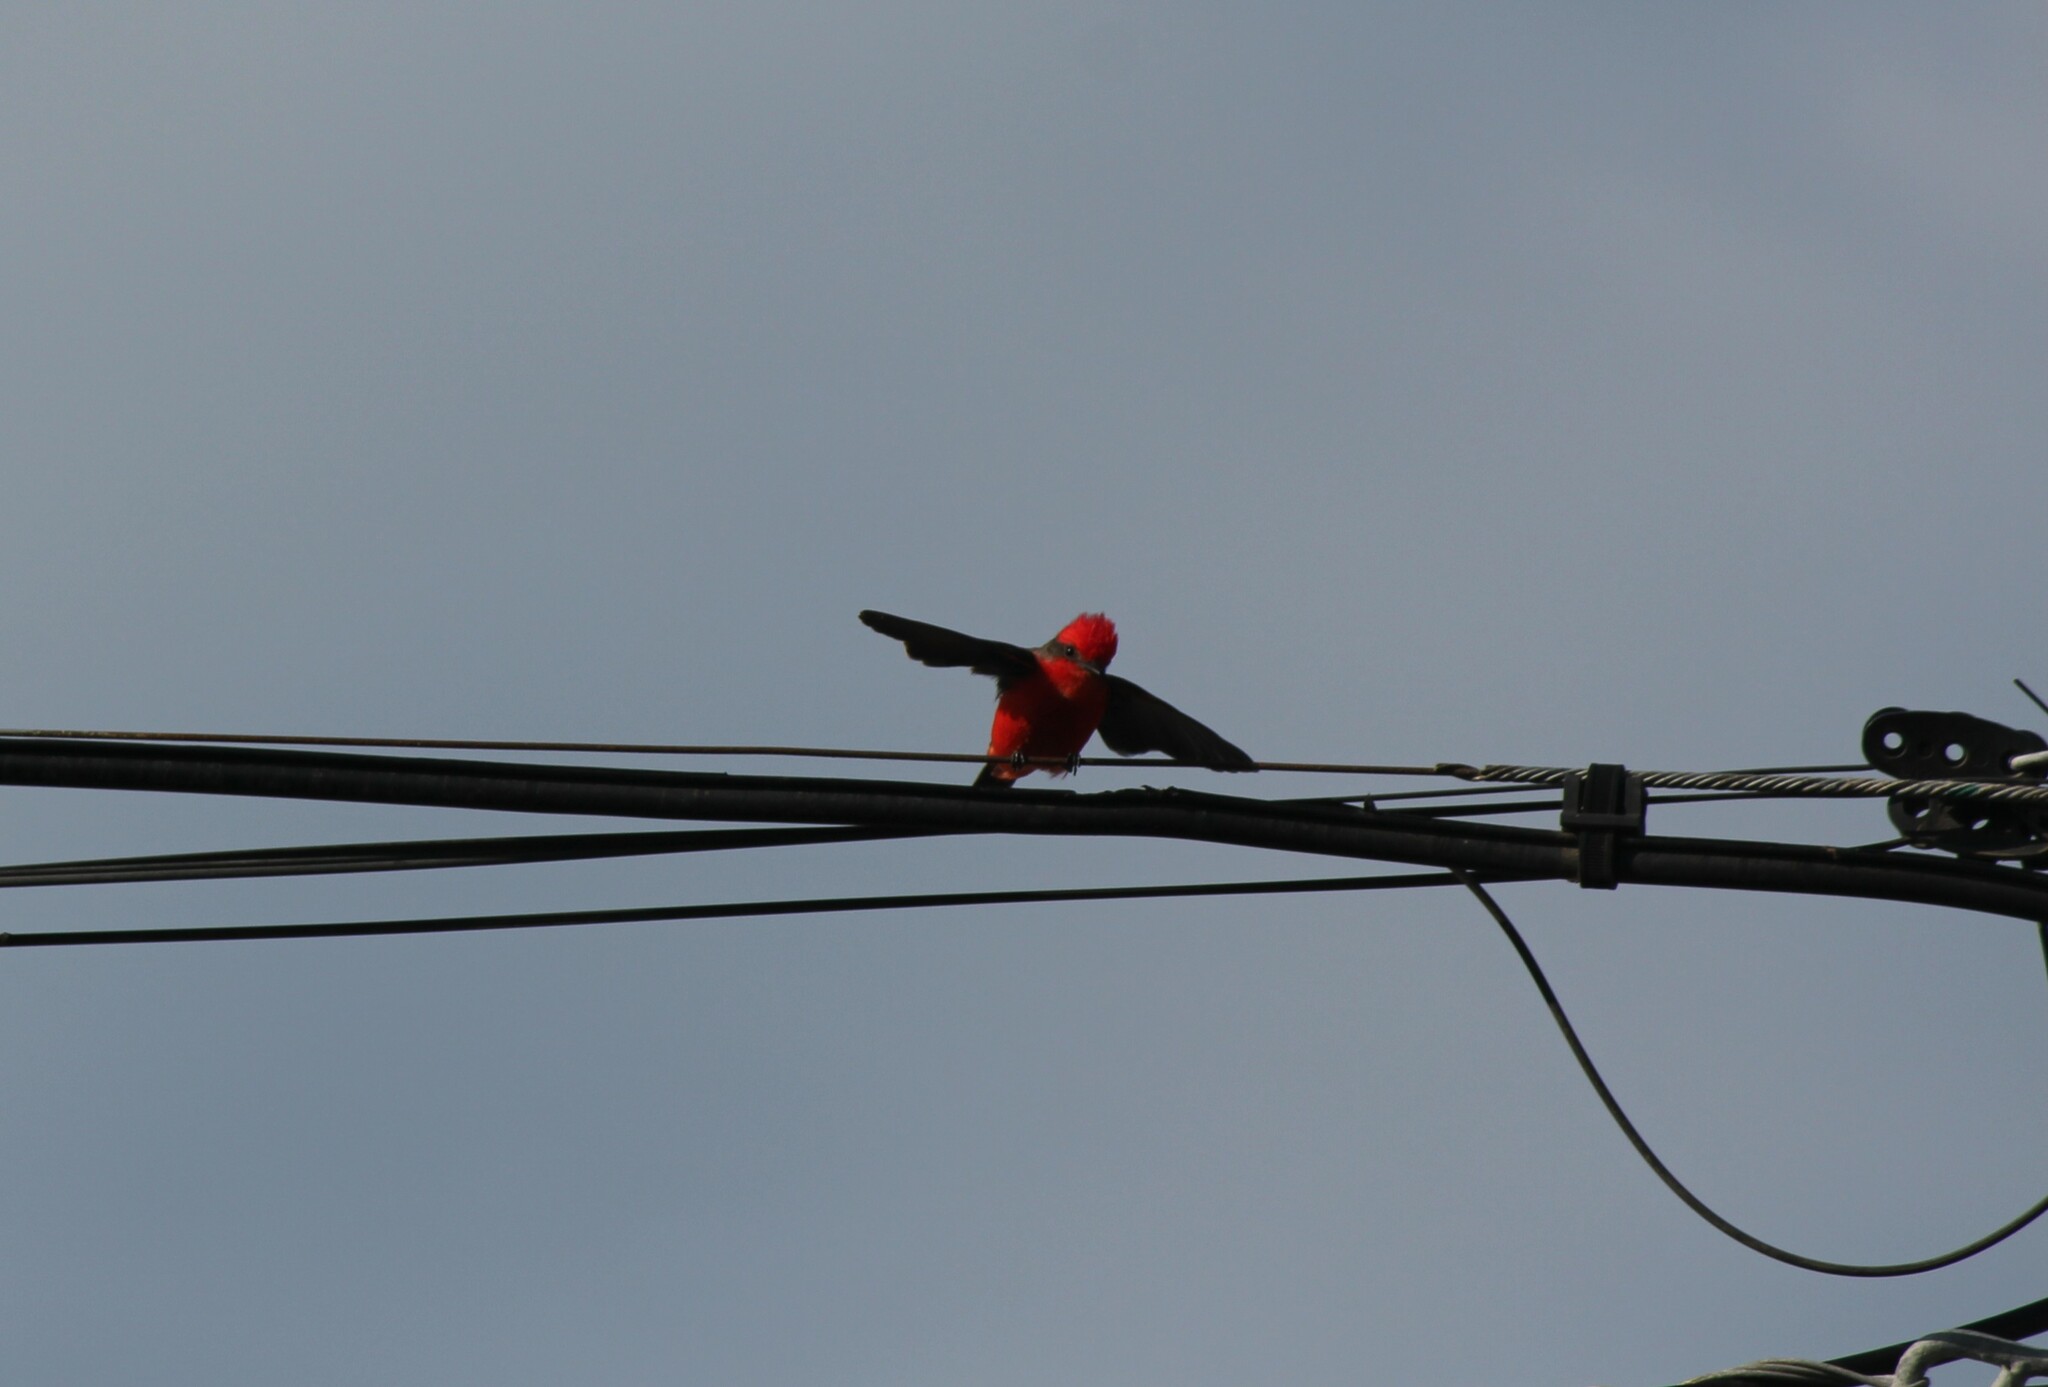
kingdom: Animalia
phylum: Chordata
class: Aves
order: Passeriformes
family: Tyrannidae
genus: Pyrocephalus
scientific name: Pyrocephalus rubinus
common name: Vermilion flycatcher
